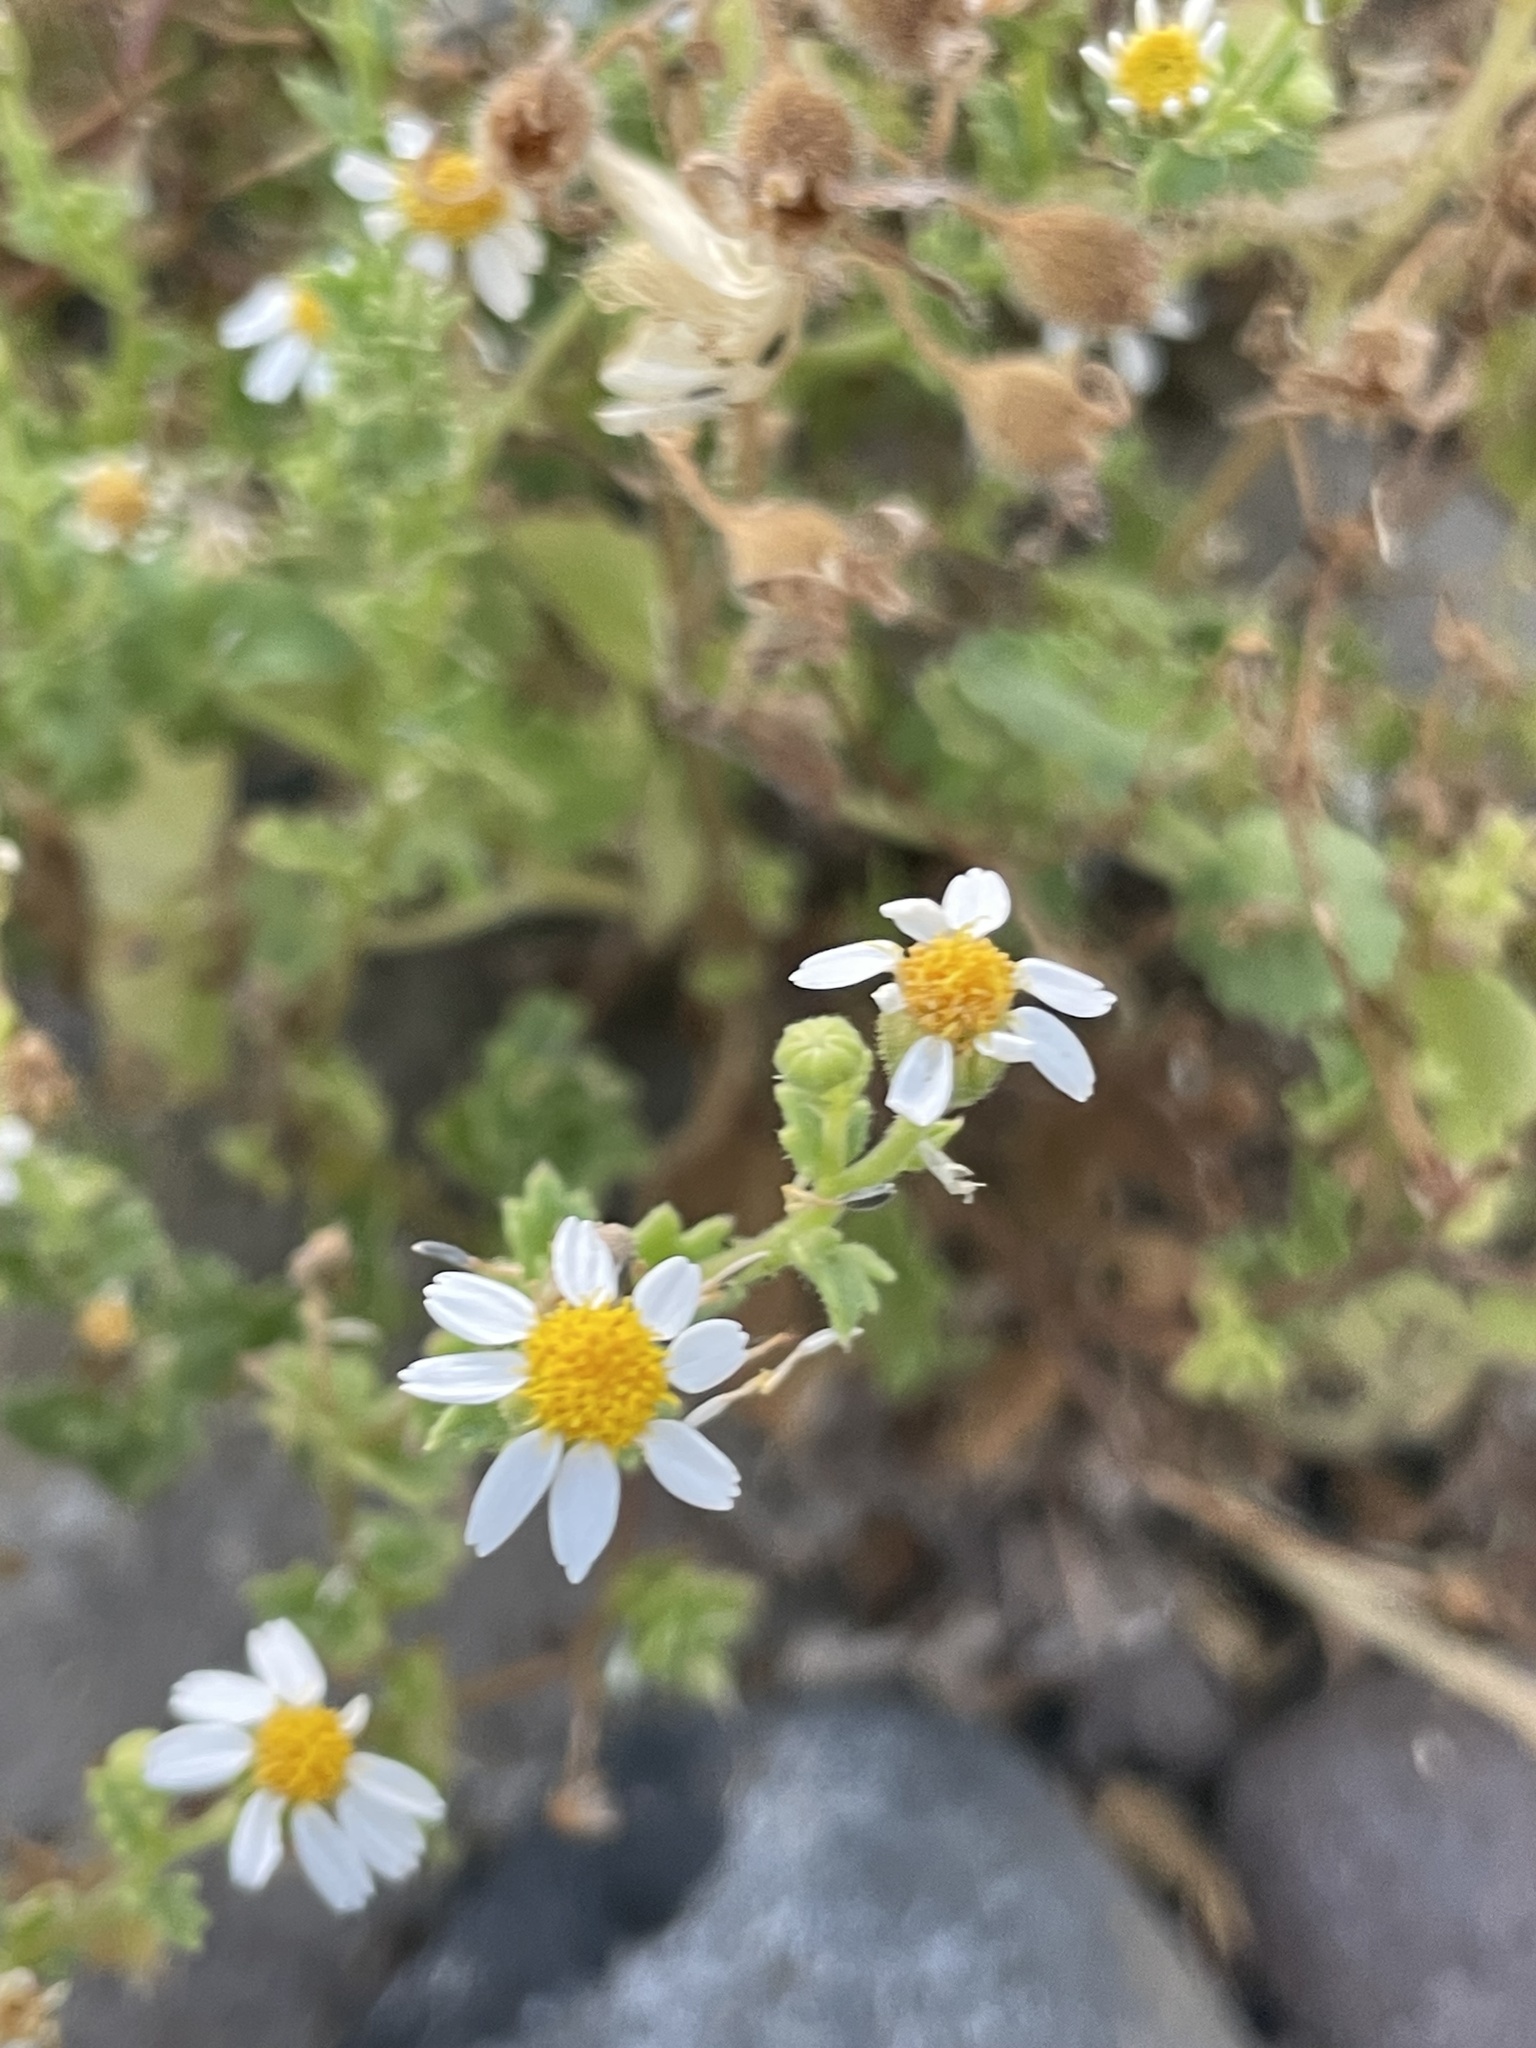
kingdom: Plantae
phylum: Tracheophyta
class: Magnoliopsida
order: Asterales
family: Asteraceae
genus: Perityle
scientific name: Perityle crassifolia
